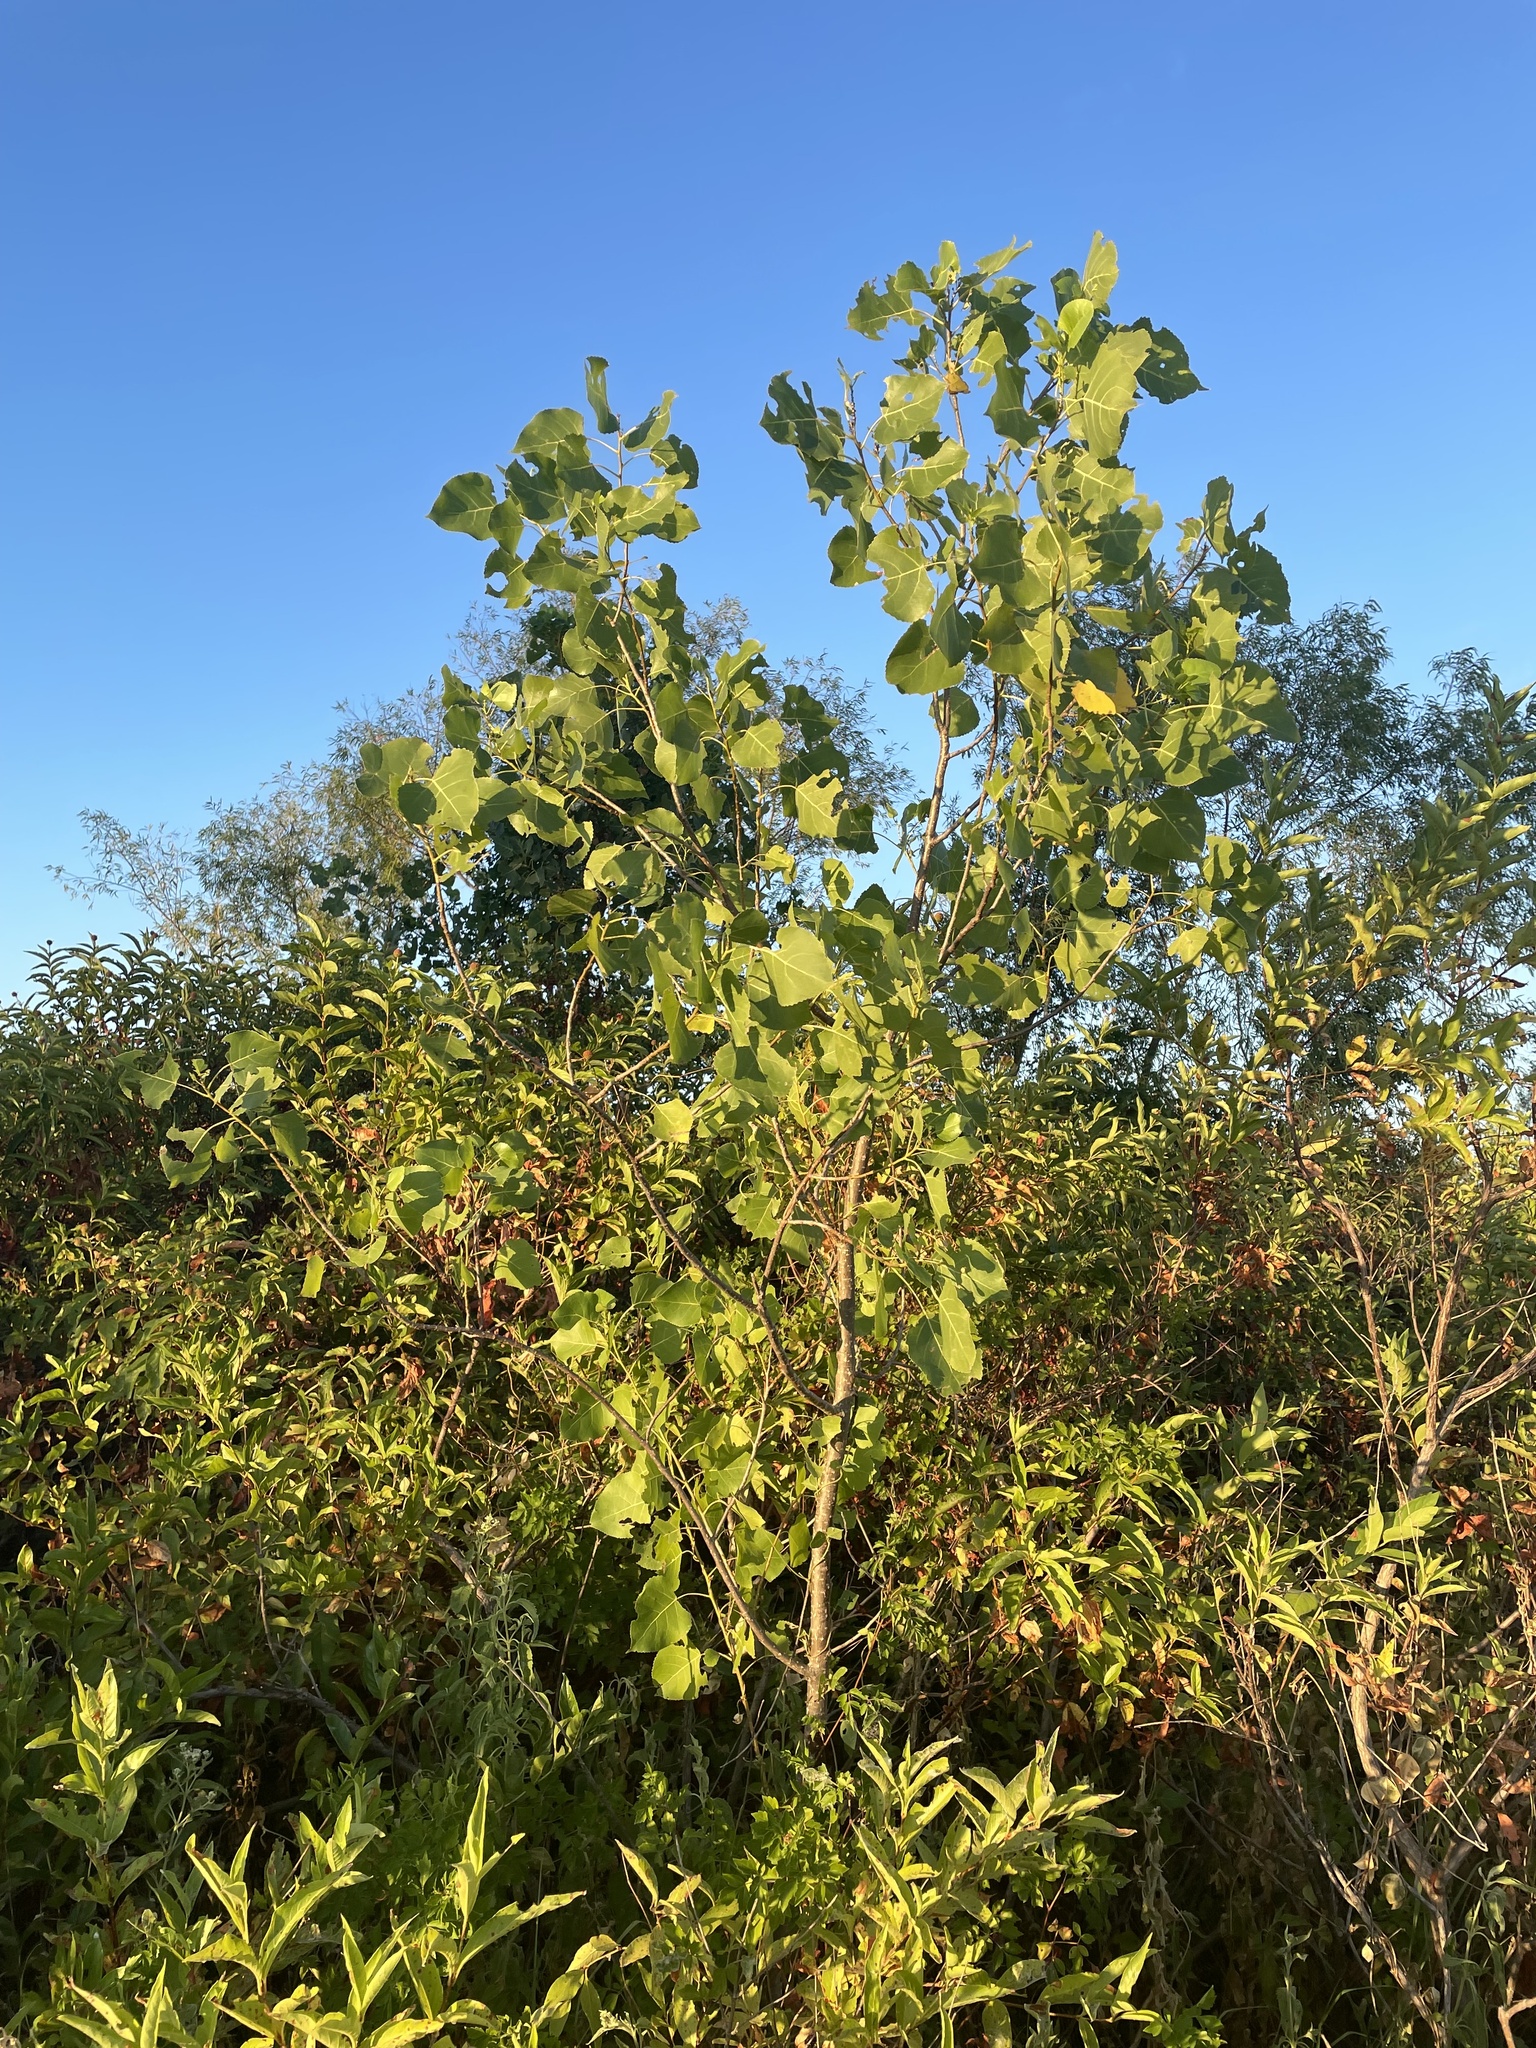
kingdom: Plantae
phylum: Tracheophyta
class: Magnoliopsida
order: Malpighiales
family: Salicaceae
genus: Populus
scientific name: Populus deltoides
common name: Eastern cottonwood
